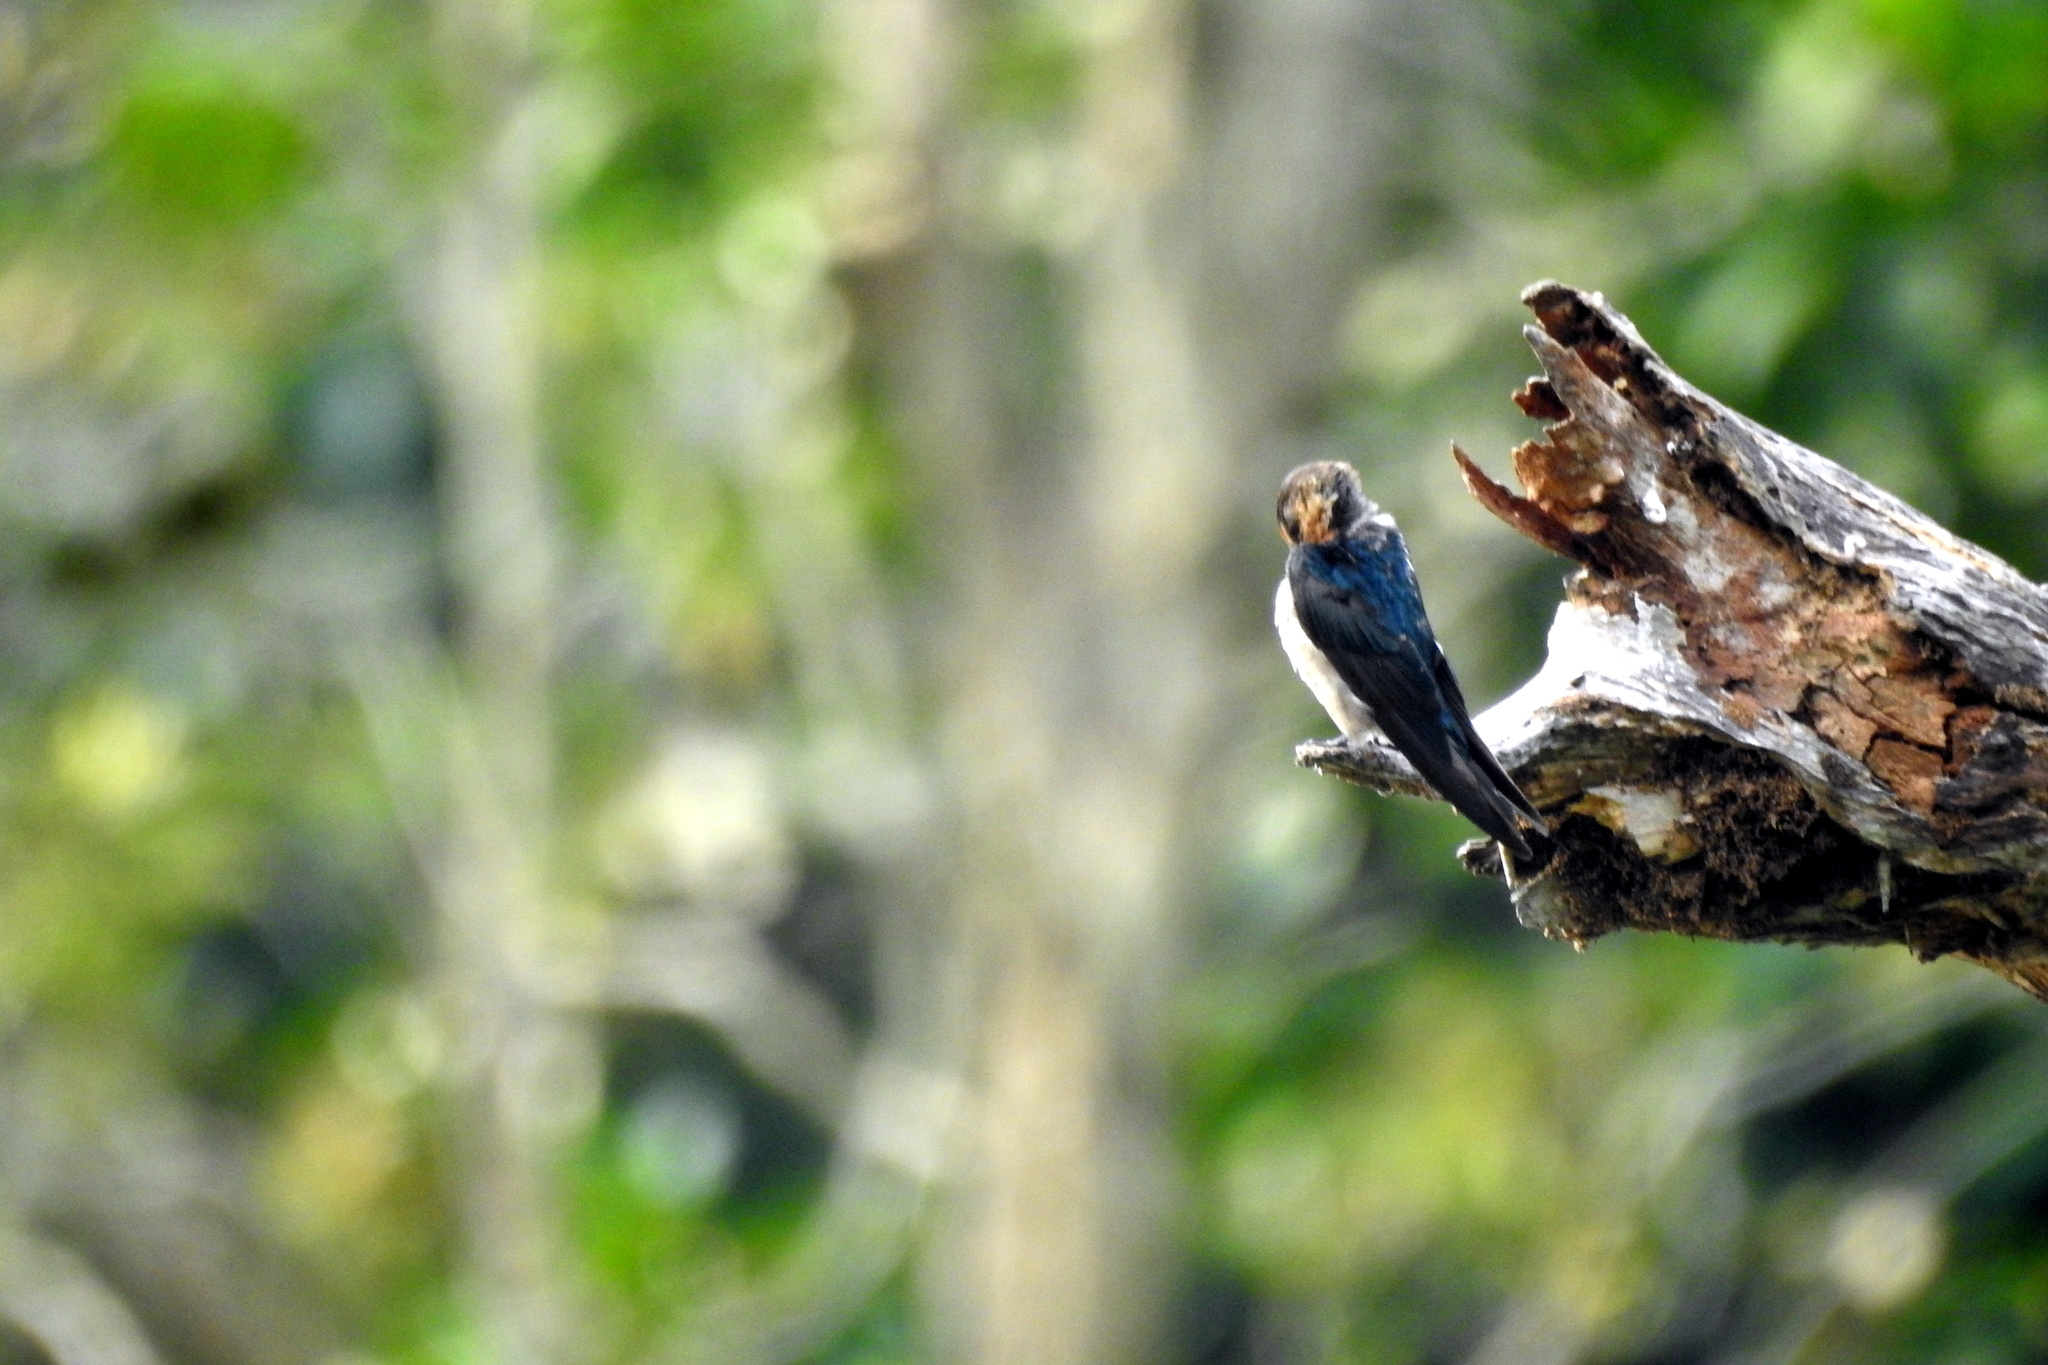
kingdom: Animalia
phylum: Chordata
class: Aves
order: Passeriformes
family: Hirundinidae
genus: Hirundo
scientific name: Hirundo tahitica
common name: Pacific swallow
